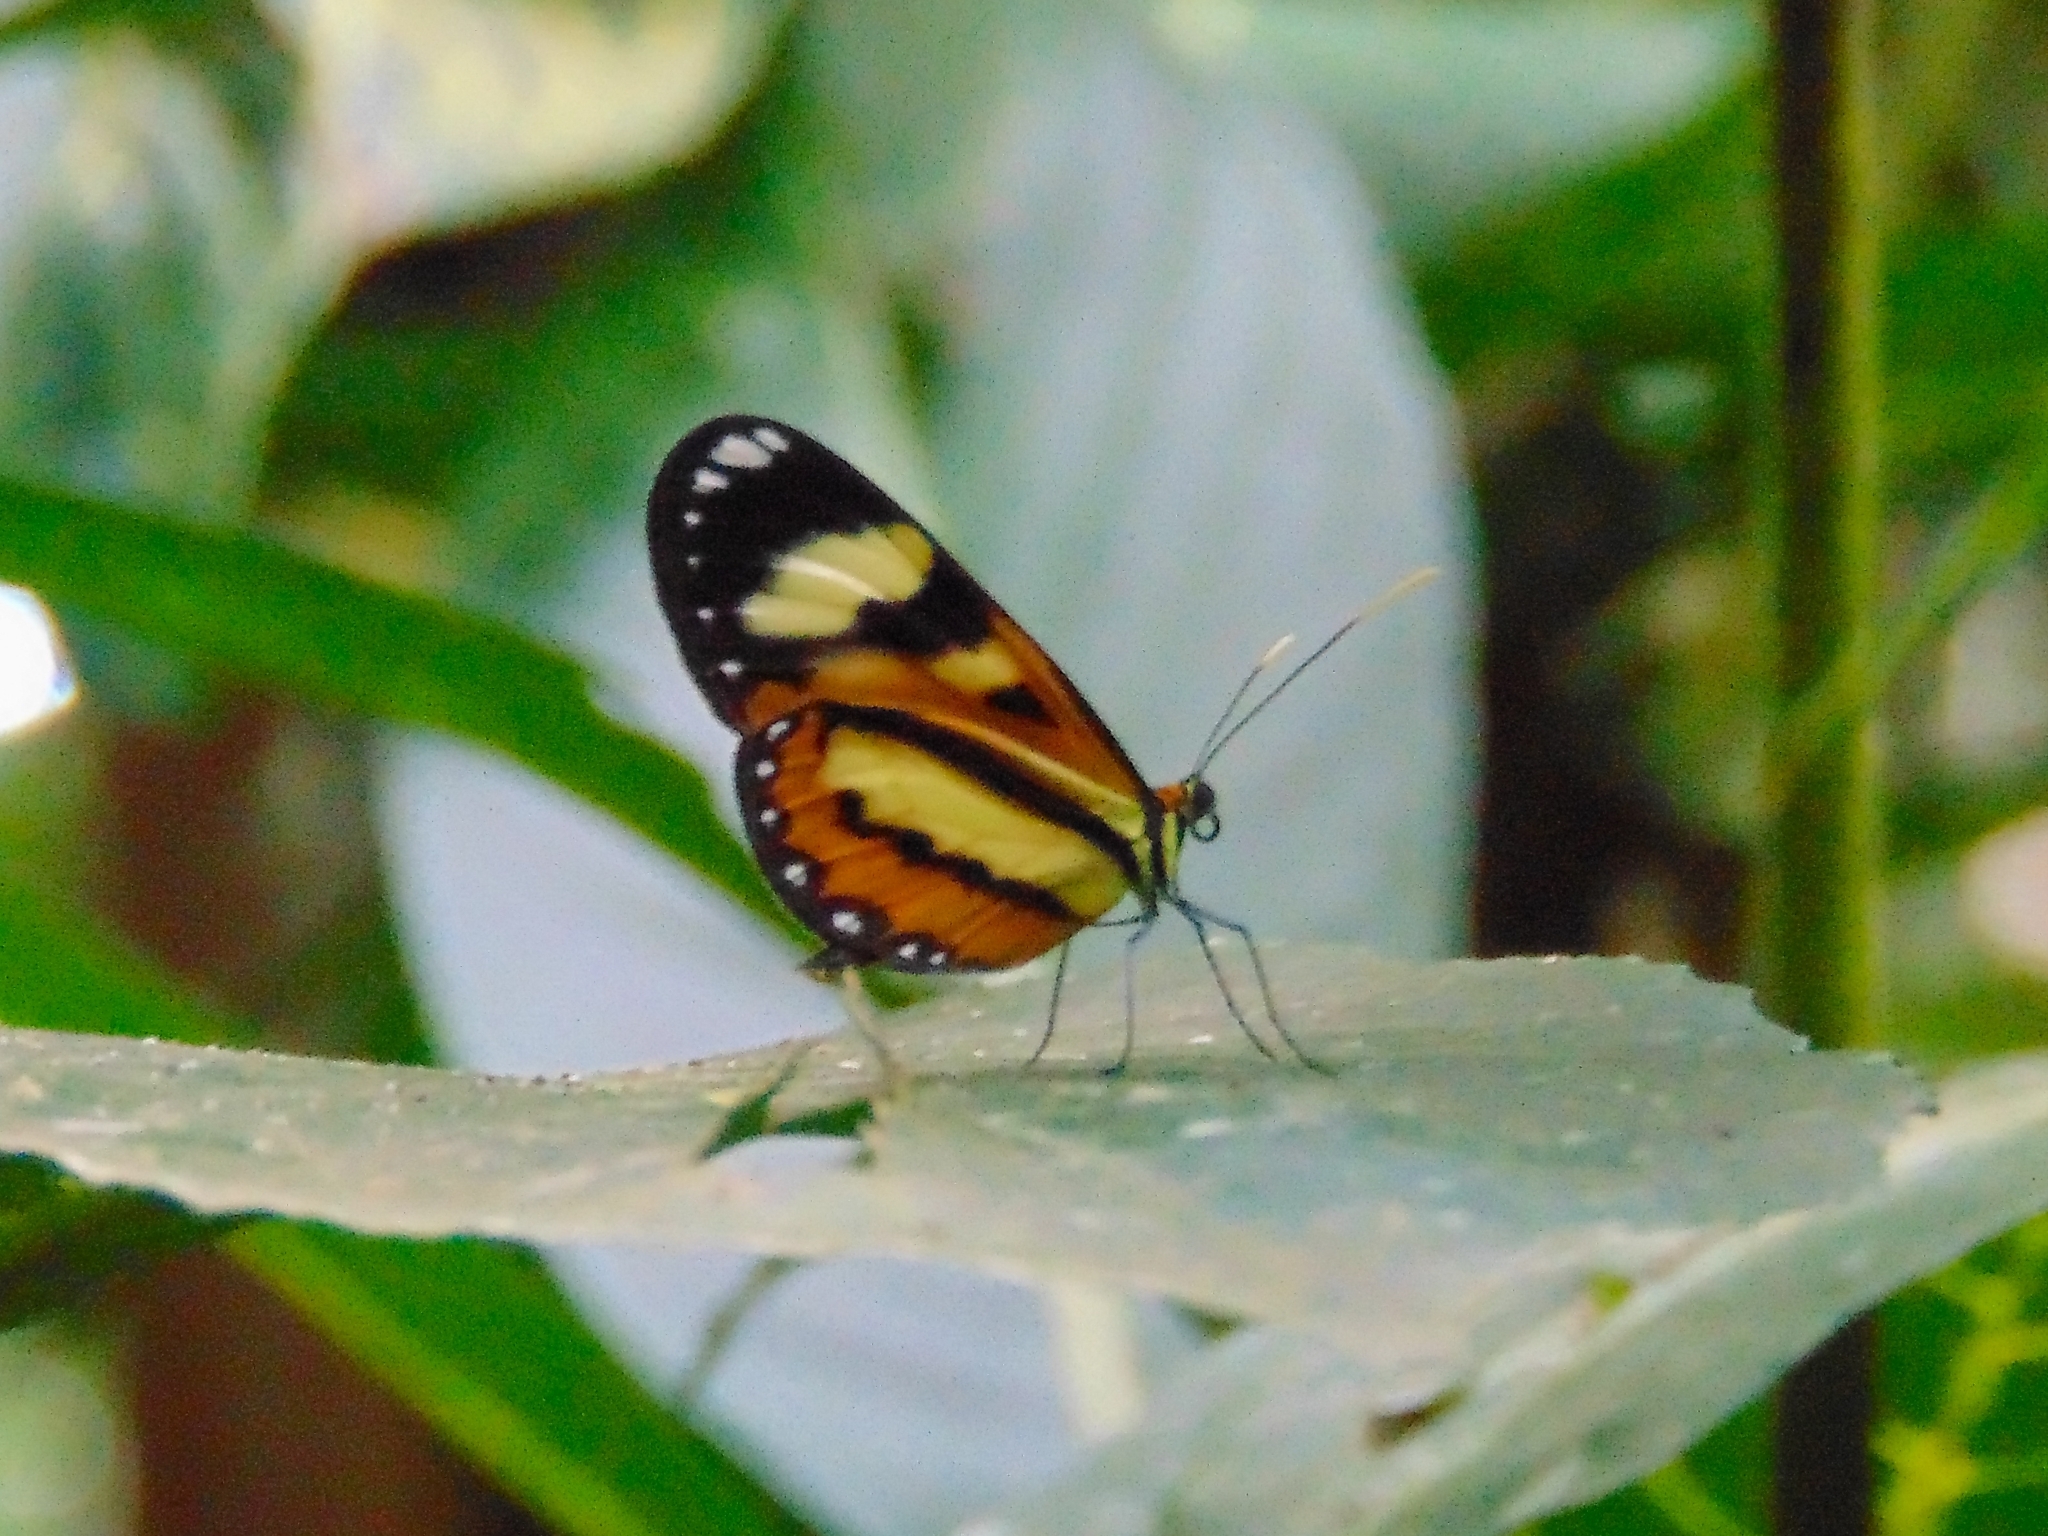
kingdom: Animalia
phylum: Arthropoda
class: Insecta
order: Lepidoptera
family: Nymphalidae
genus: Hypothyris
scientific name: Hypothyris ninonia
